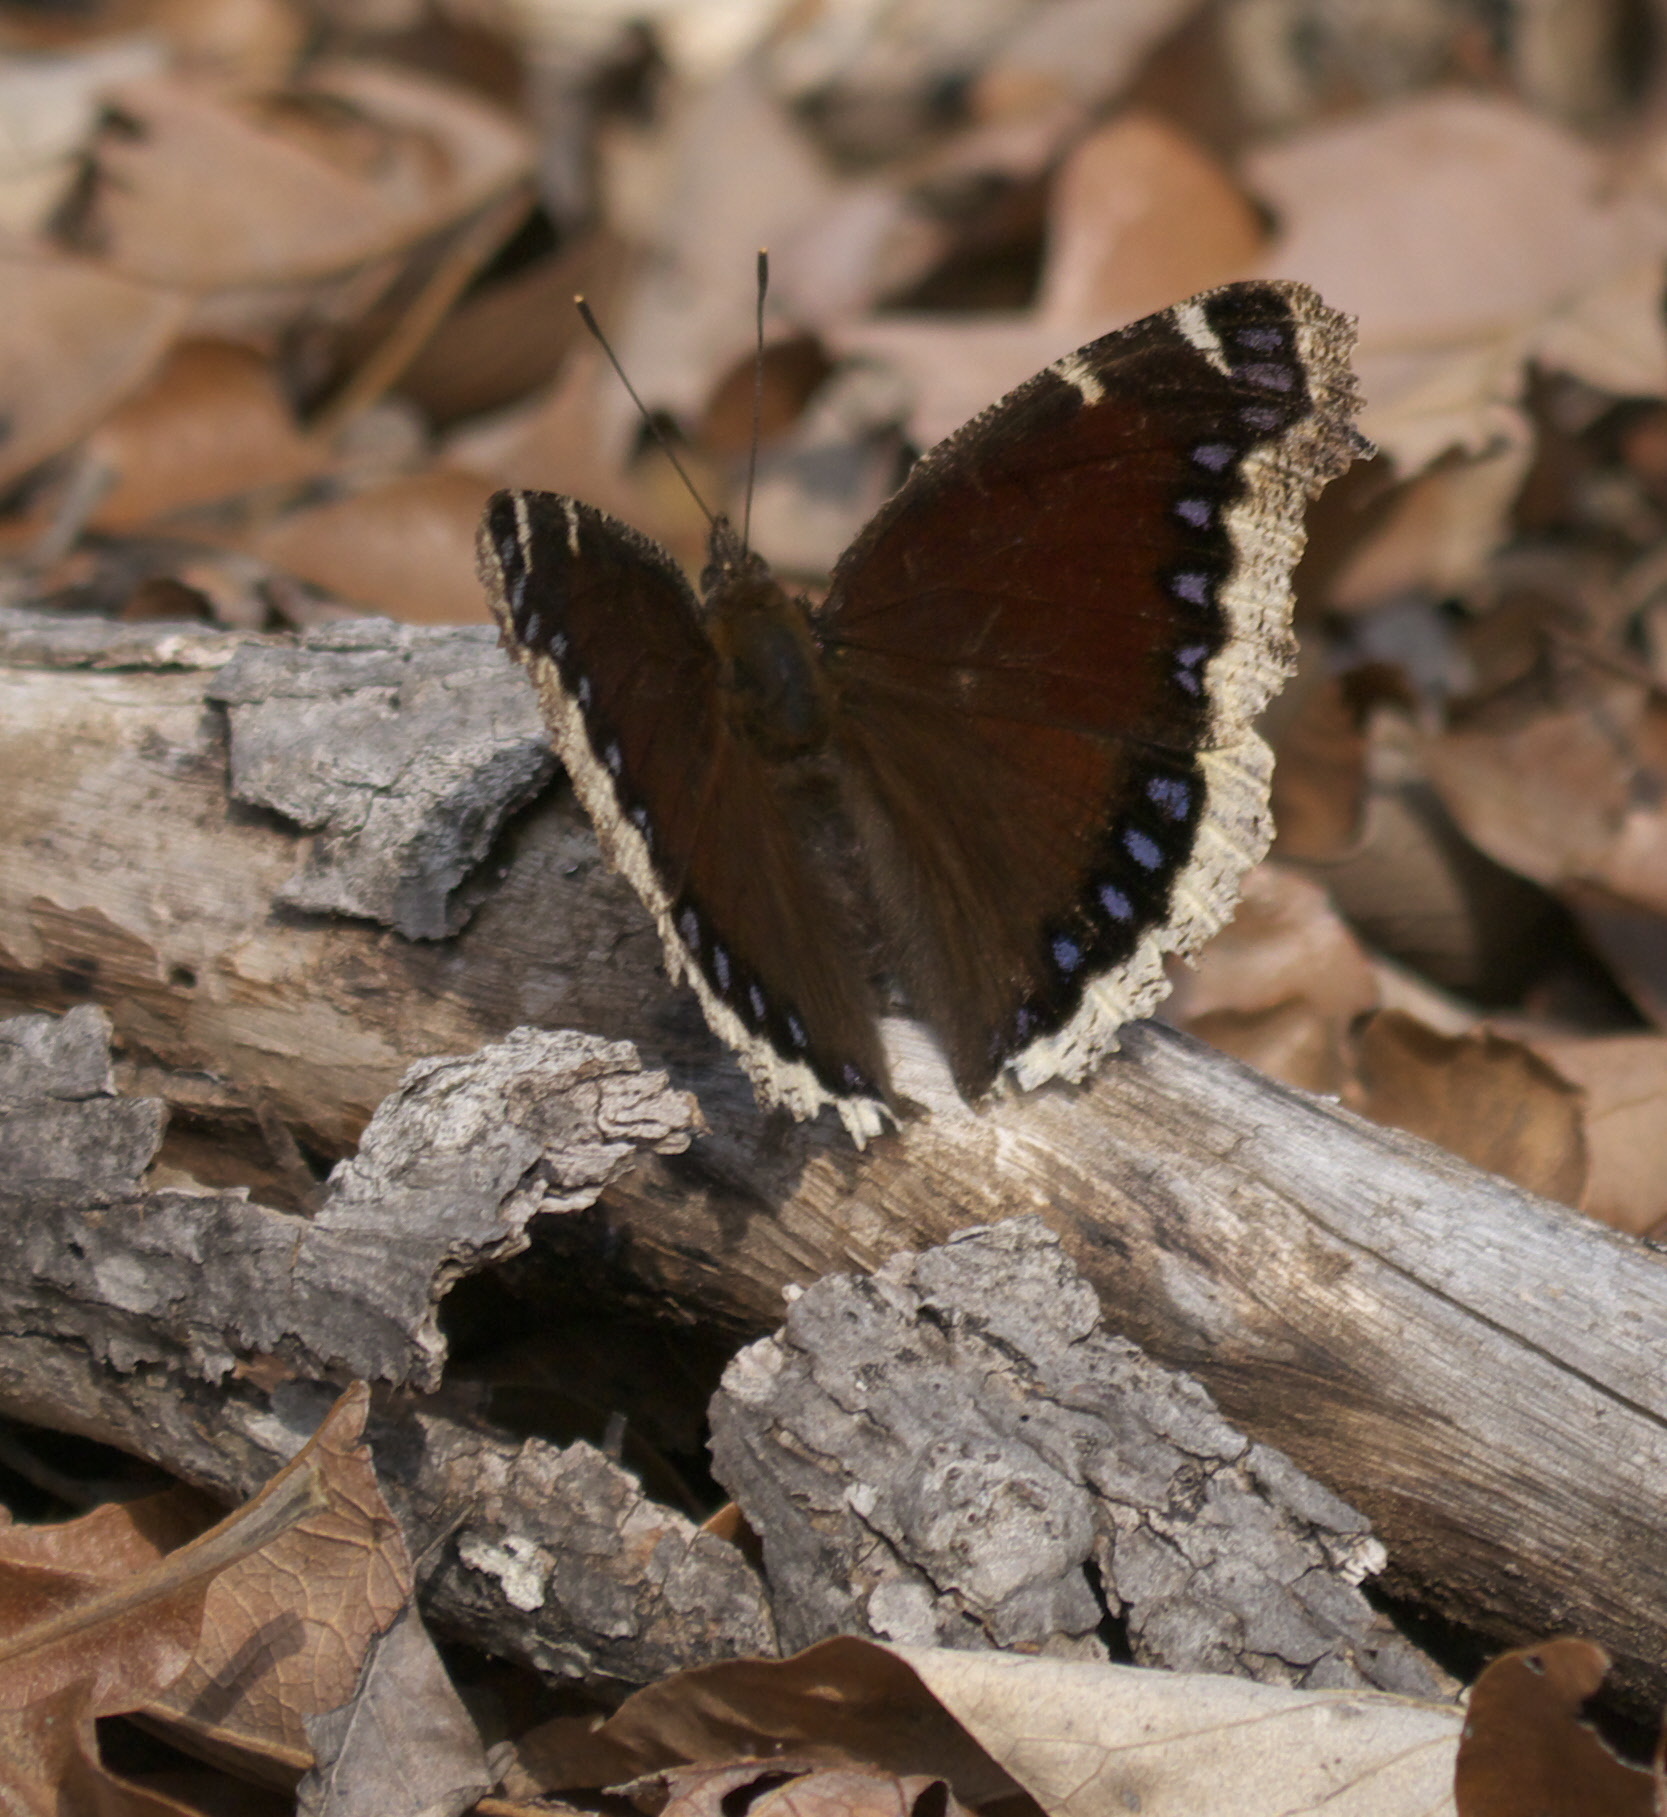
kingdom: Animalia
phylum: Arthropoda
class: Insecta
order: Lepidoptera
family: Nymphalidae
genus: Nymphalis
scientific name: Nymphalis antiopa
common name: Camberwell beauty
